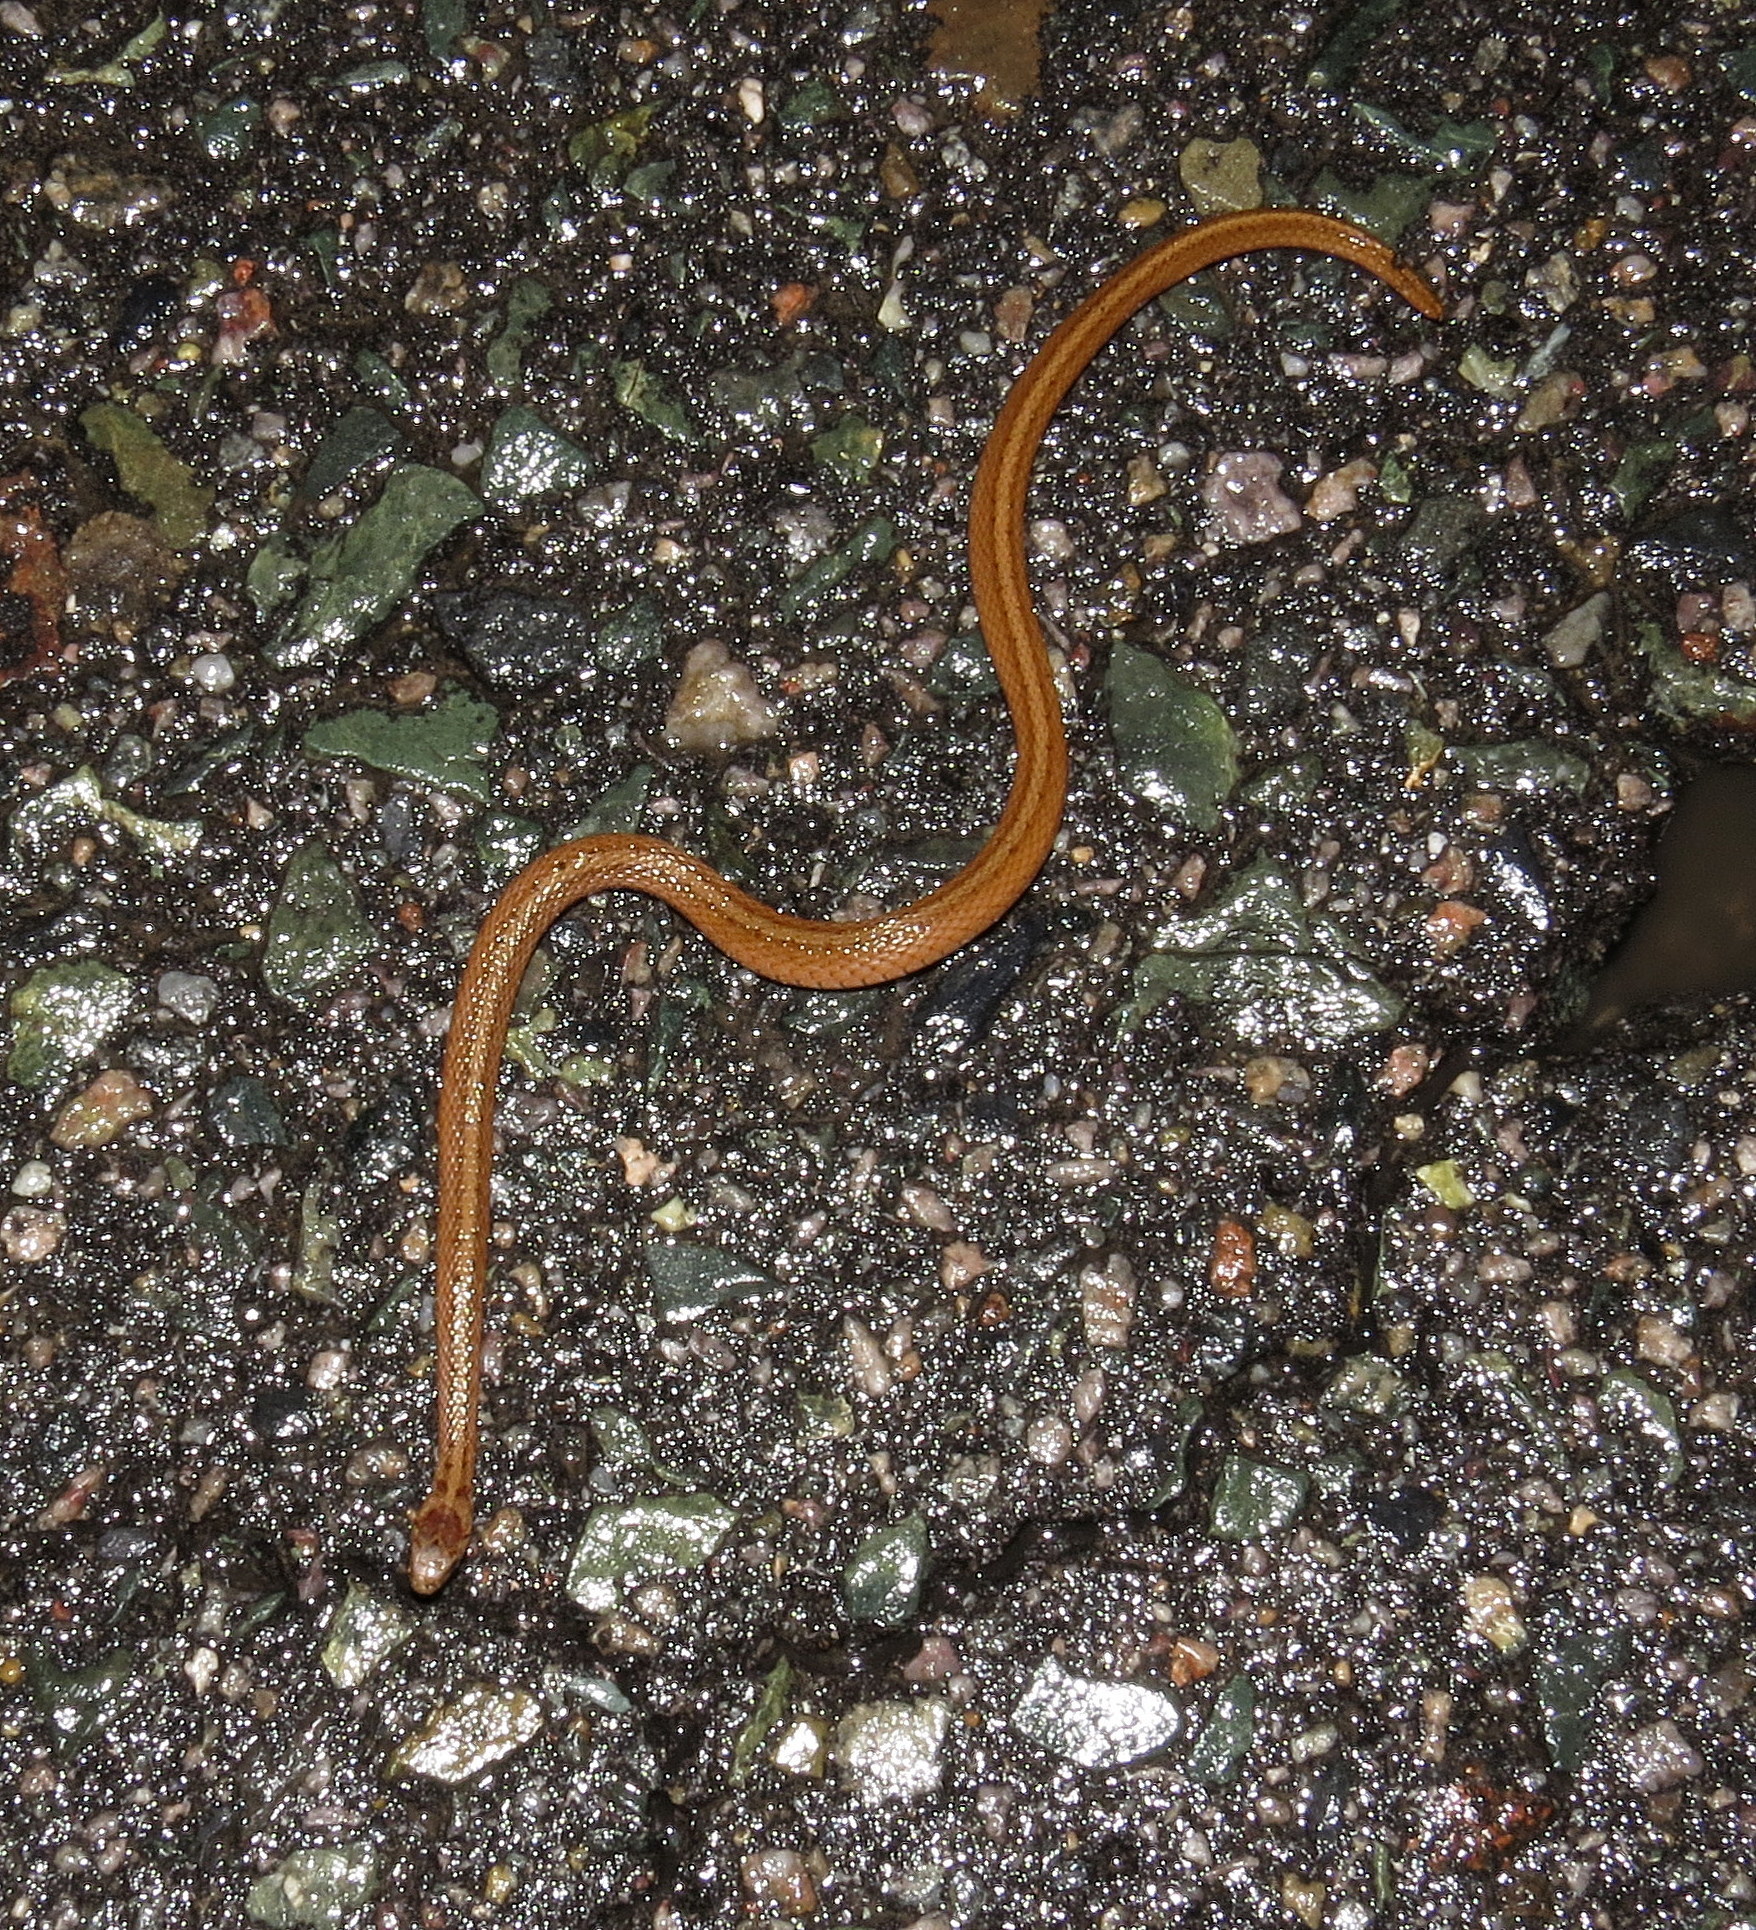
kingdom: Animalia
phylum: Chordata
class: Squamata
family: Colubridae
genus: Storeria
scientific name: Storeria dekayi
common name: (dekay’s) brown snake
